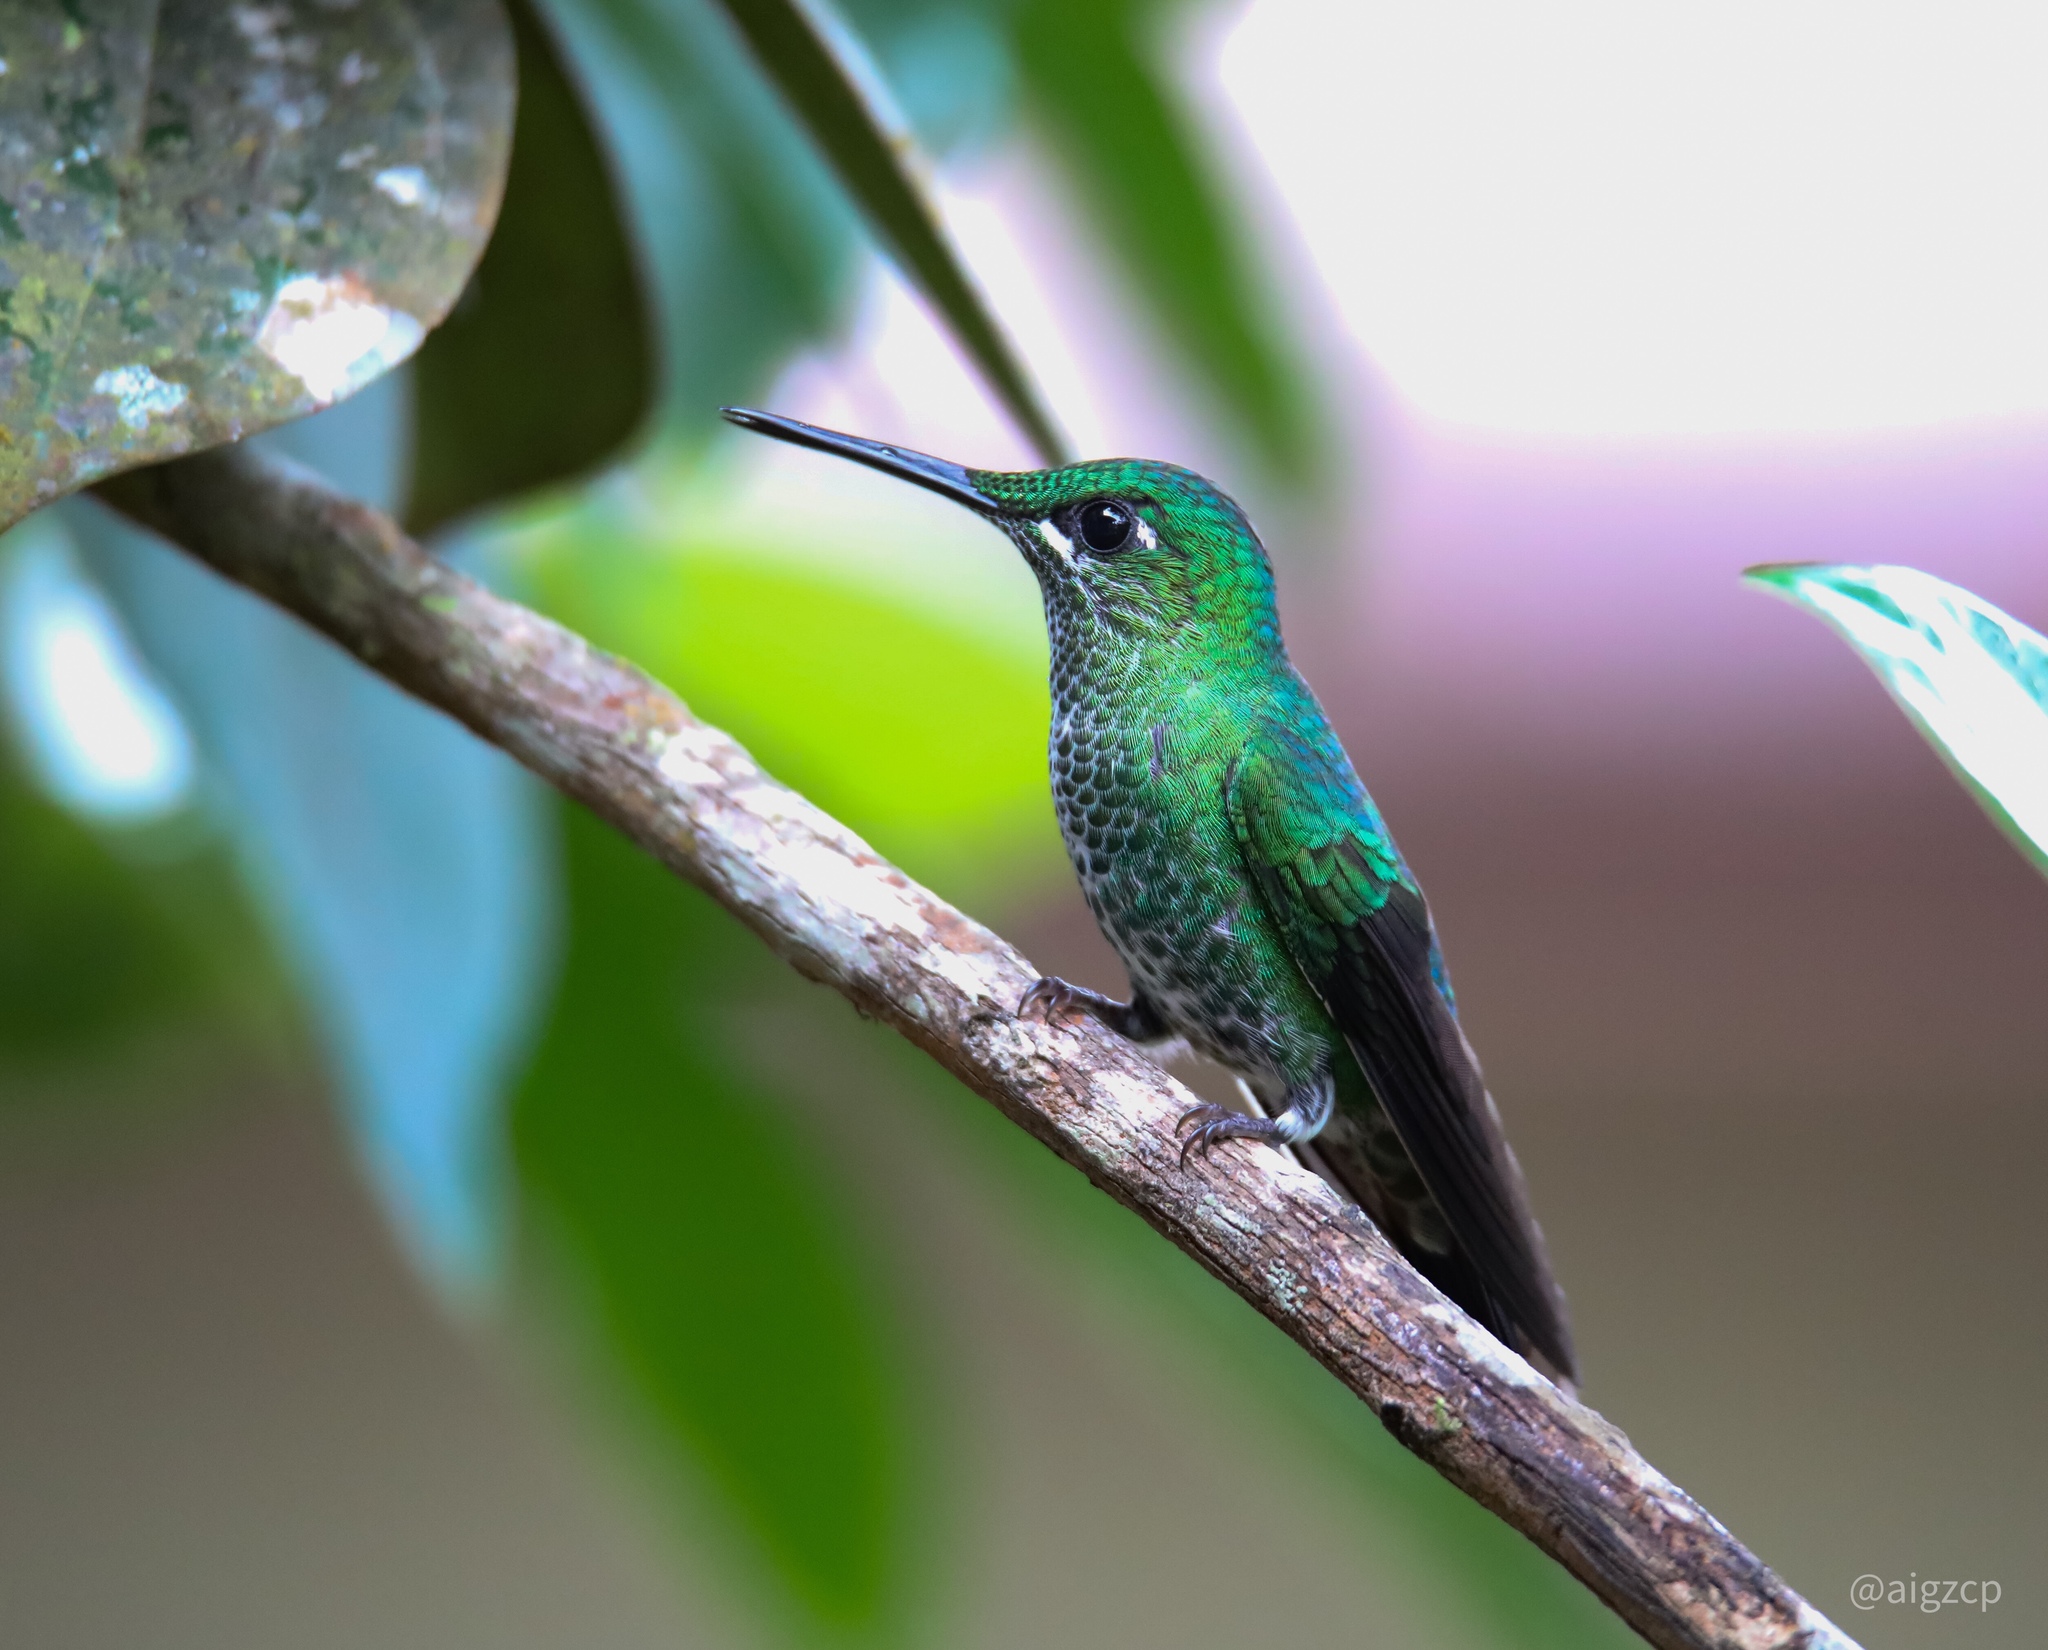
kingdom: Animalia
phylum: Chordata
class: Aves
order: Apodiformes
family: Trochilidae
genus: Heliodoxa
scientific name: Heliodoxa jacula
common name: Green-crowned brilliant
